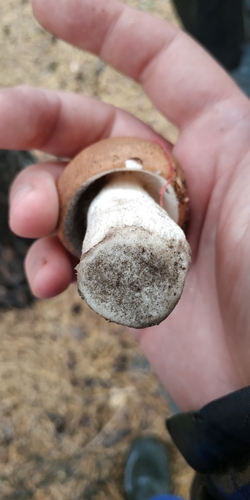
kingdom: Fungi
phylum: Basidiomycota
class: Agaricomycetes
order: Russulales
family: Russulaceae
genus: Russula
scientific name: Russula
